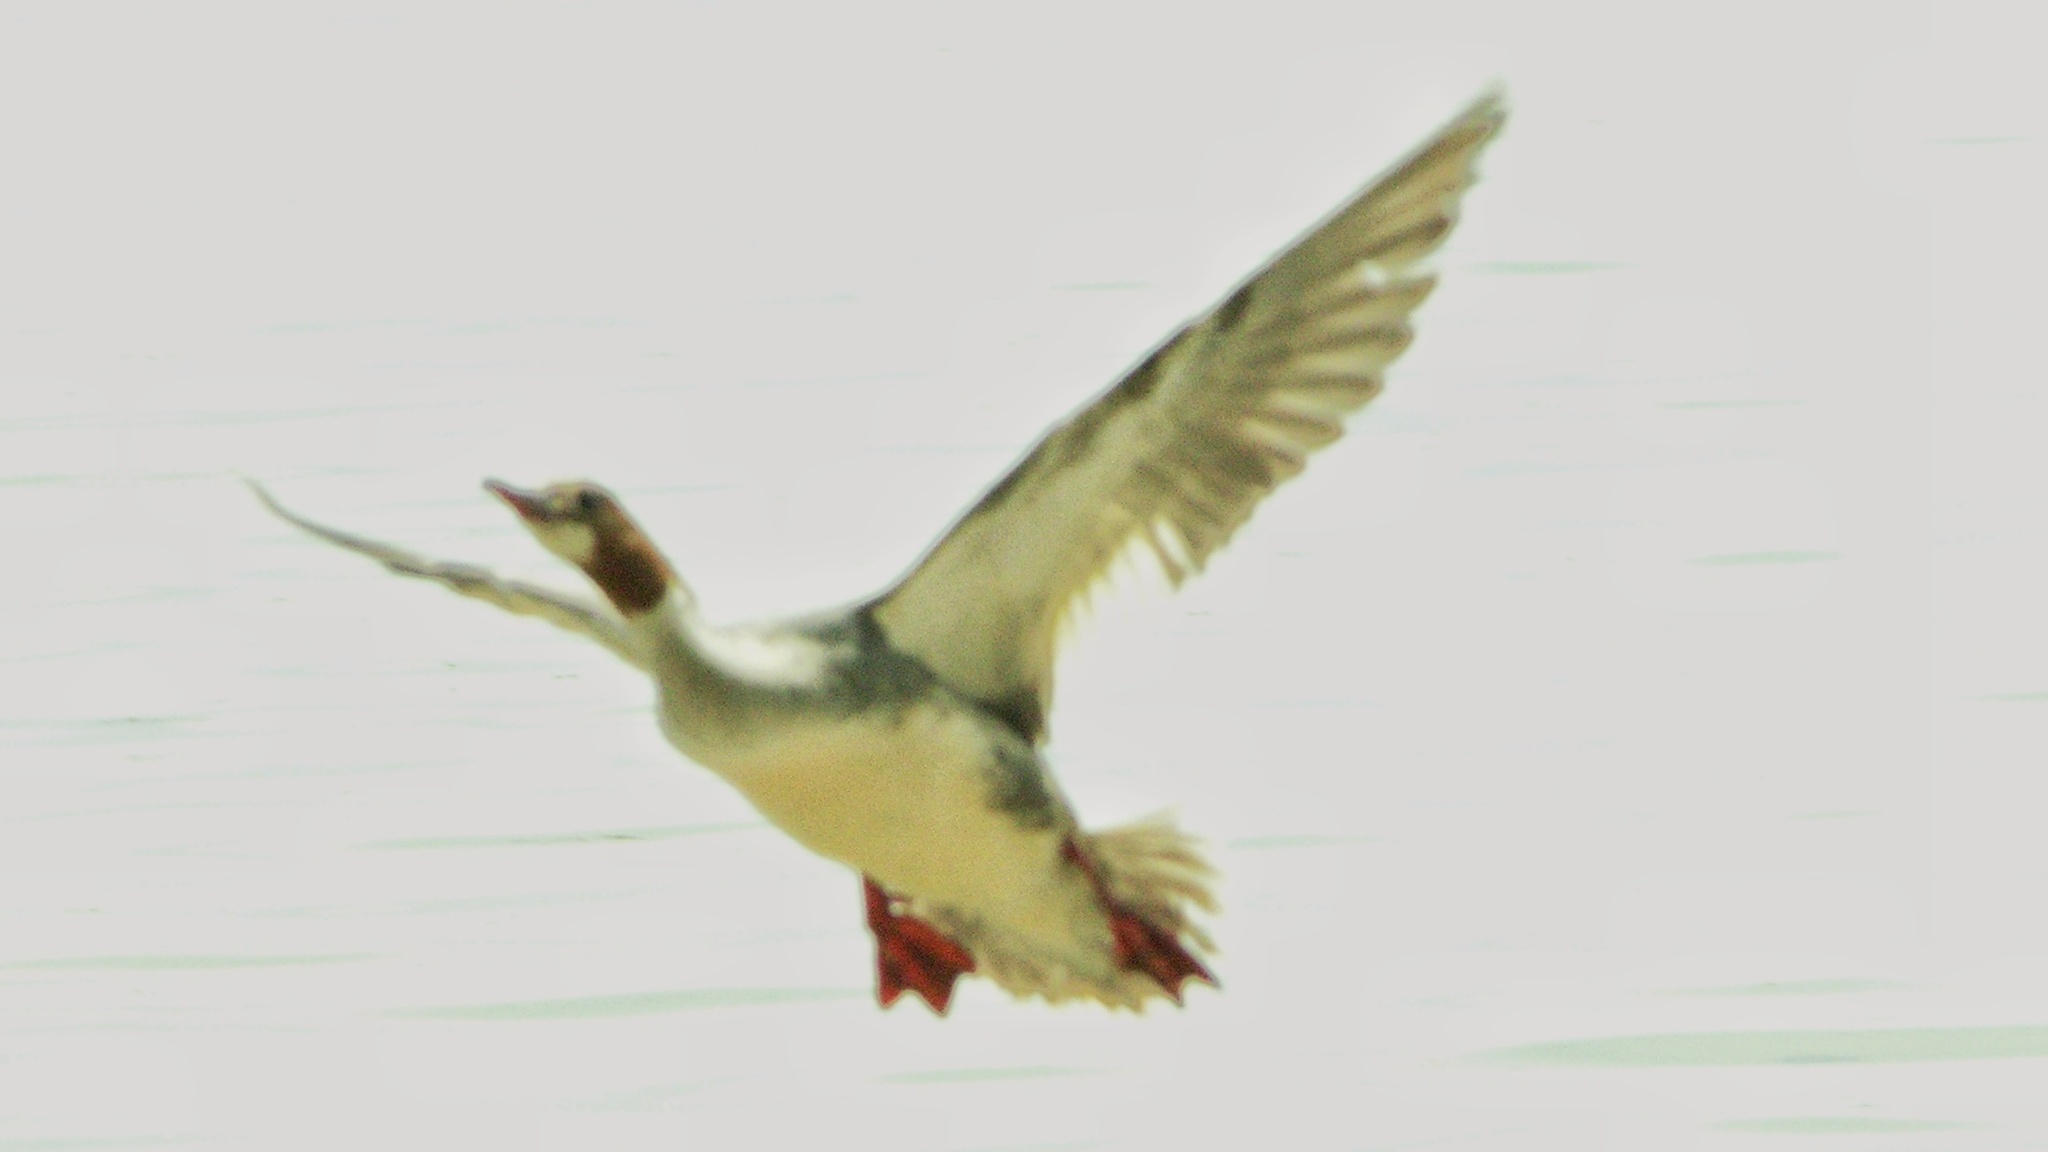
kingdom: Animalia
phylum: Chordata
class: Aves
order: Anseriformes
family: Anatidae
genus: Mergus
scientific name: Mergus merganser
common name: Common merganser
